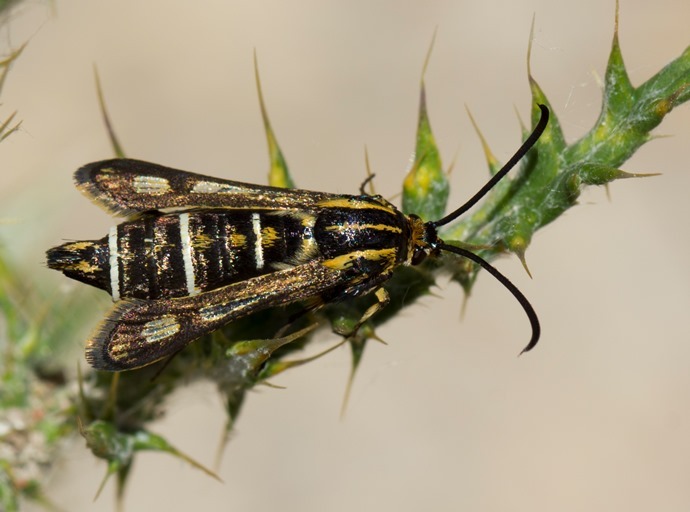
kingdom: Animalia
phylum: Arthropoda
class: Insecta
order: Lepidoptera
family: Sesiidae
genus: Chamaesphecia
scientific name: Chamaesphecia bibioniformis
